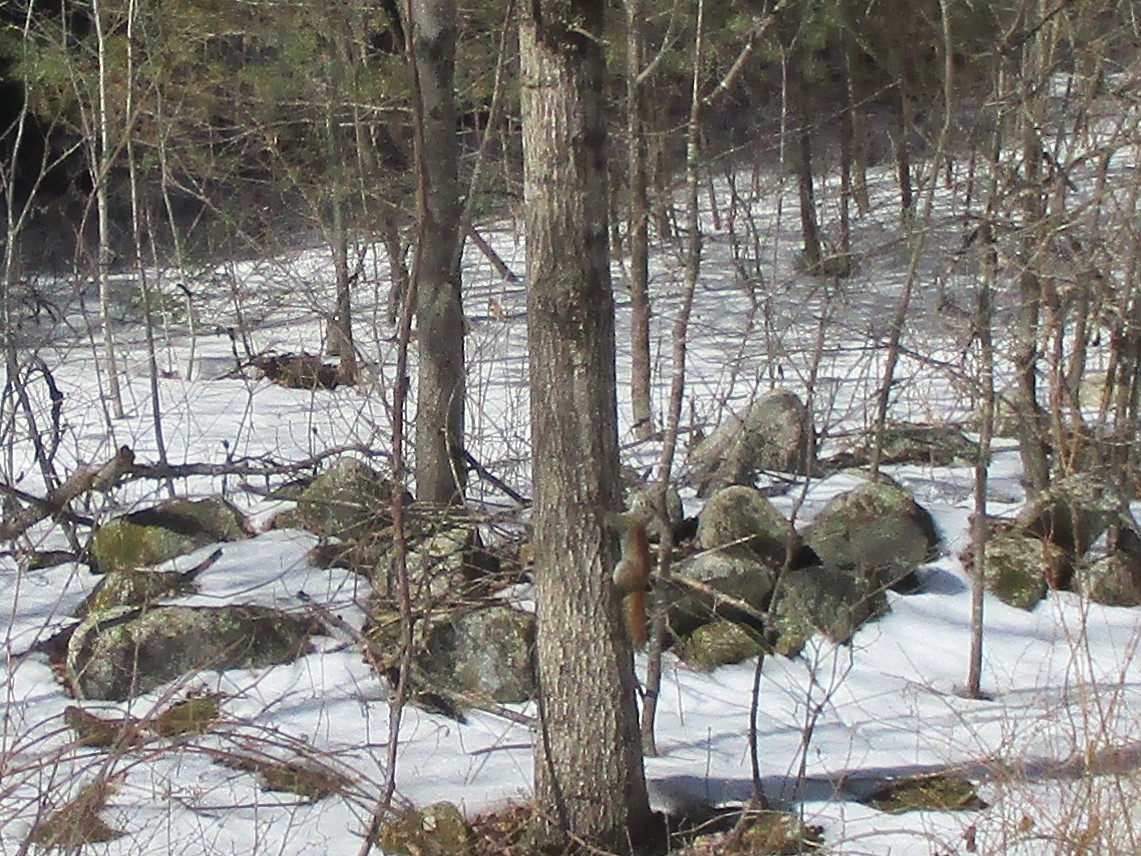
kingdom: Animalia
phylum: Chordata
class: Mammalia
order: Rodentia
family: Sciuridae
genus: Tamiasciurus
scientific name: Tamiasciurus hudsonicus
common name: Red squirrel
